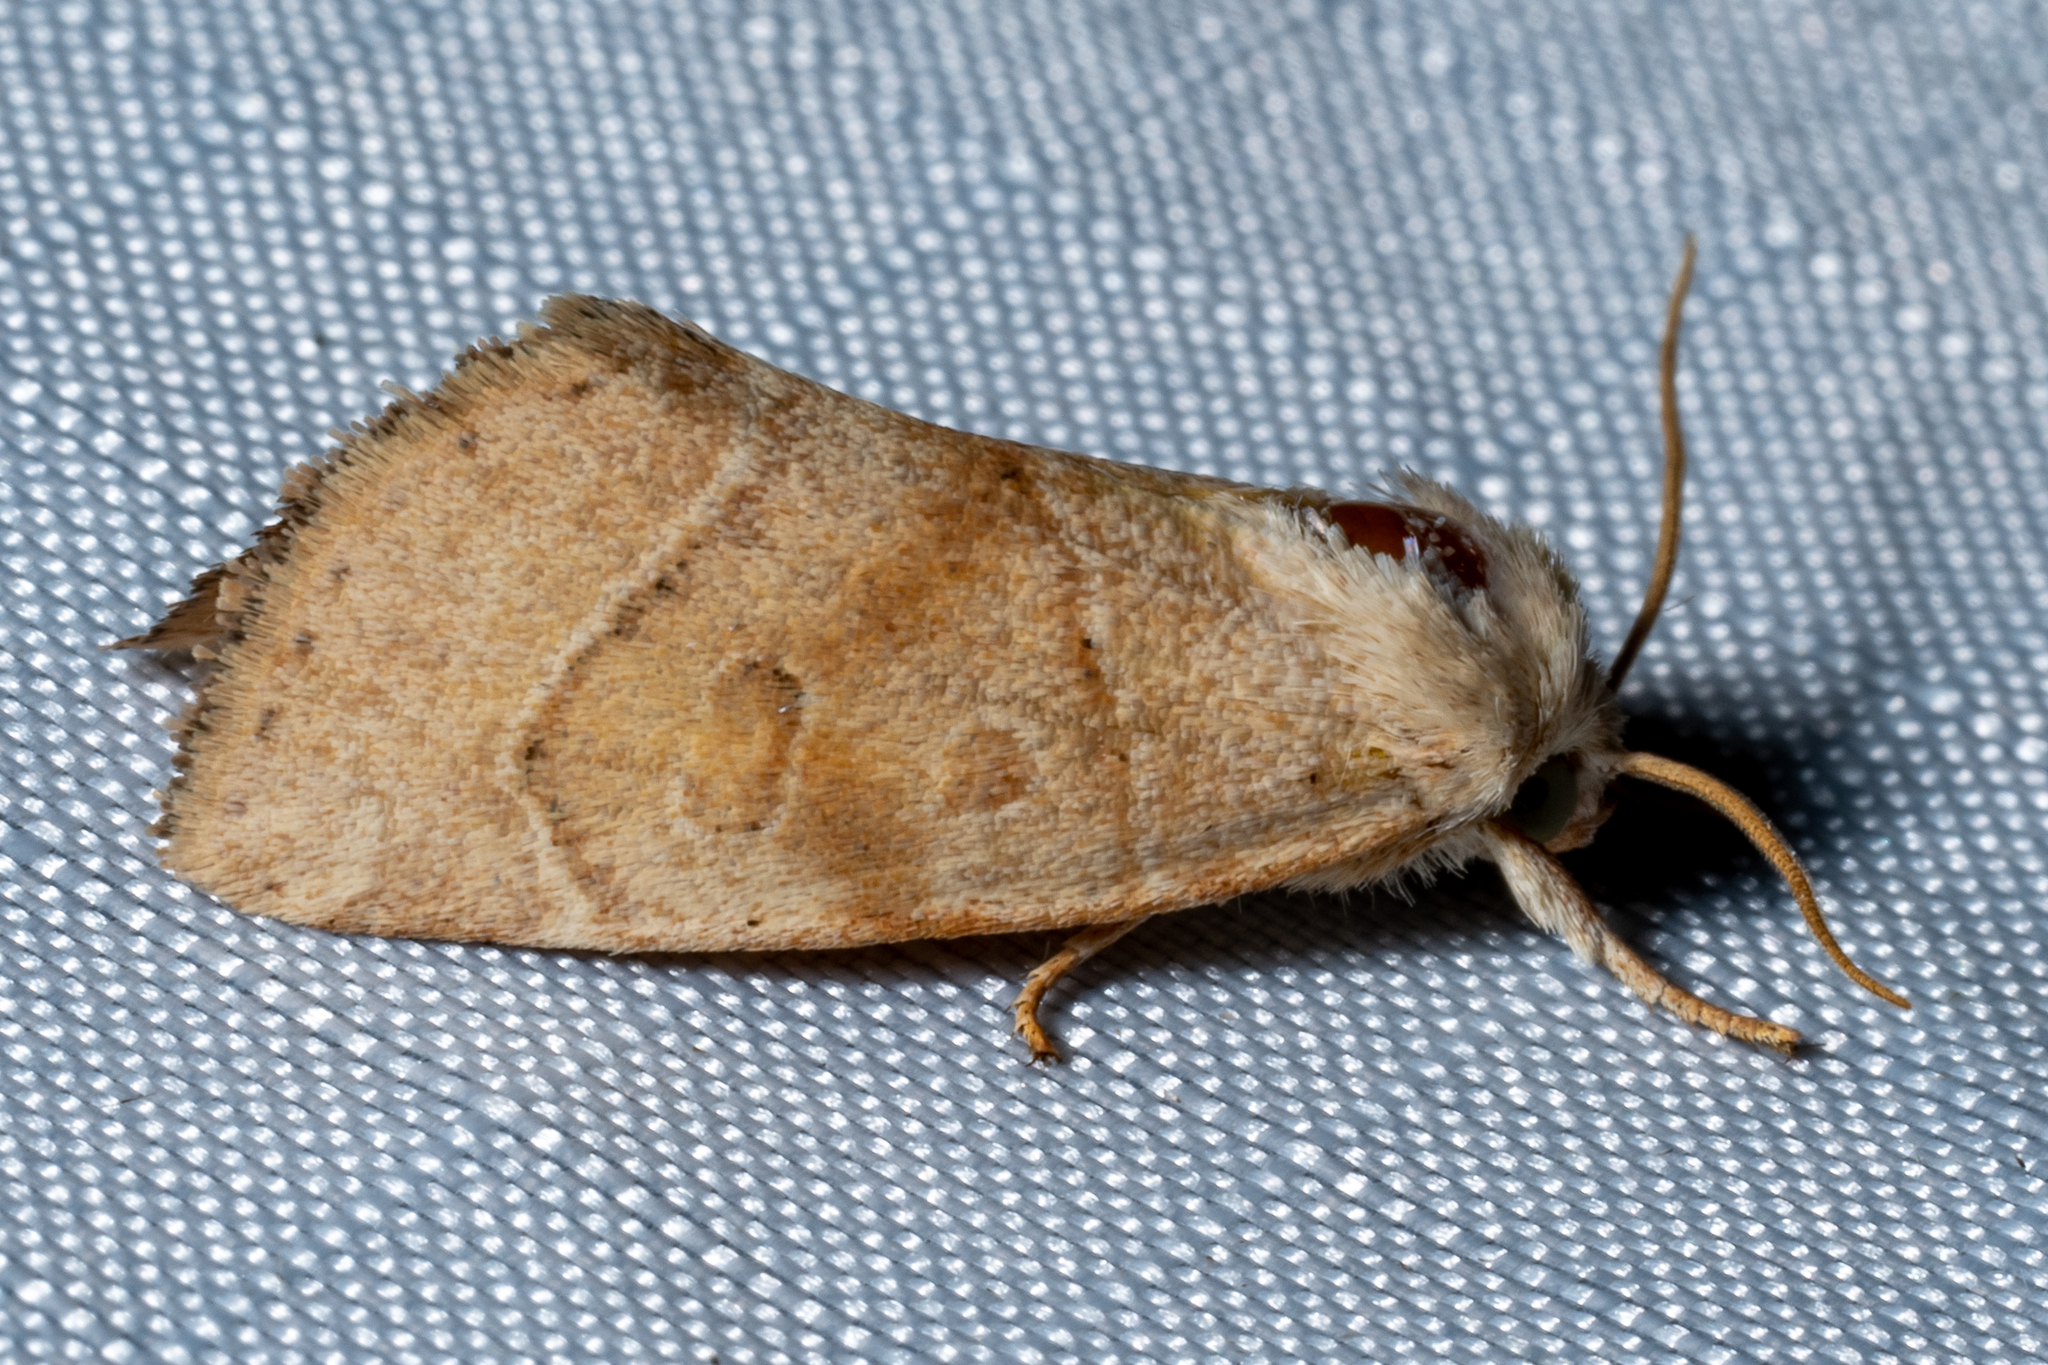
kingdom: Animalia
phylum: Arthropoda
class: Insecta
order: Lepidoptera
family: Noctuidae
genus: Cosmia
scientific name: Cosmia calami
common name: American dun-bar moth
